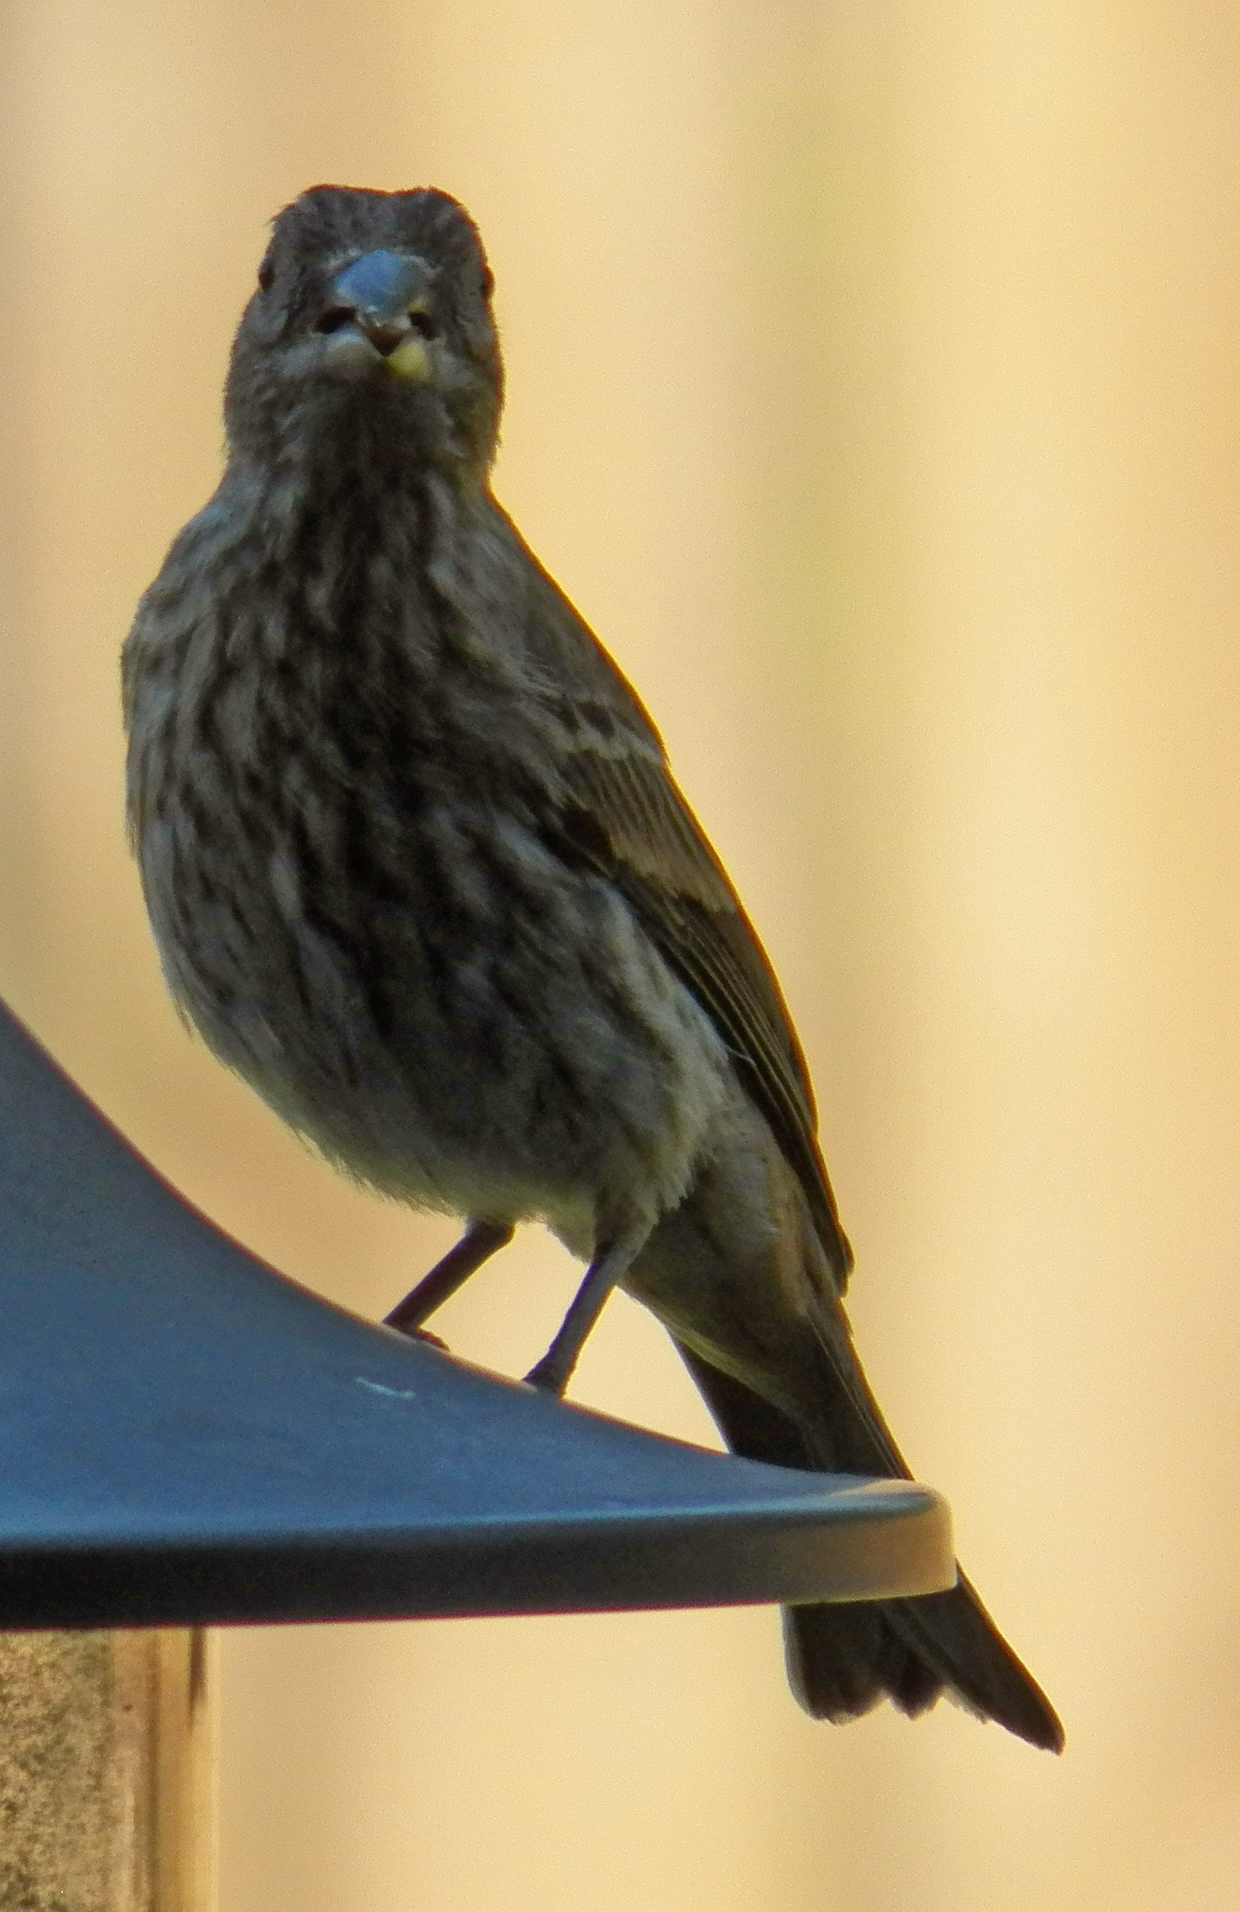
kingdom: Animalia
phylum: Chordata
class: Aves
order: Passeriformes
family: Fringillidae
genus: Haemorhous
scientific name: Haemorhous mexicanus
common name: House finch
